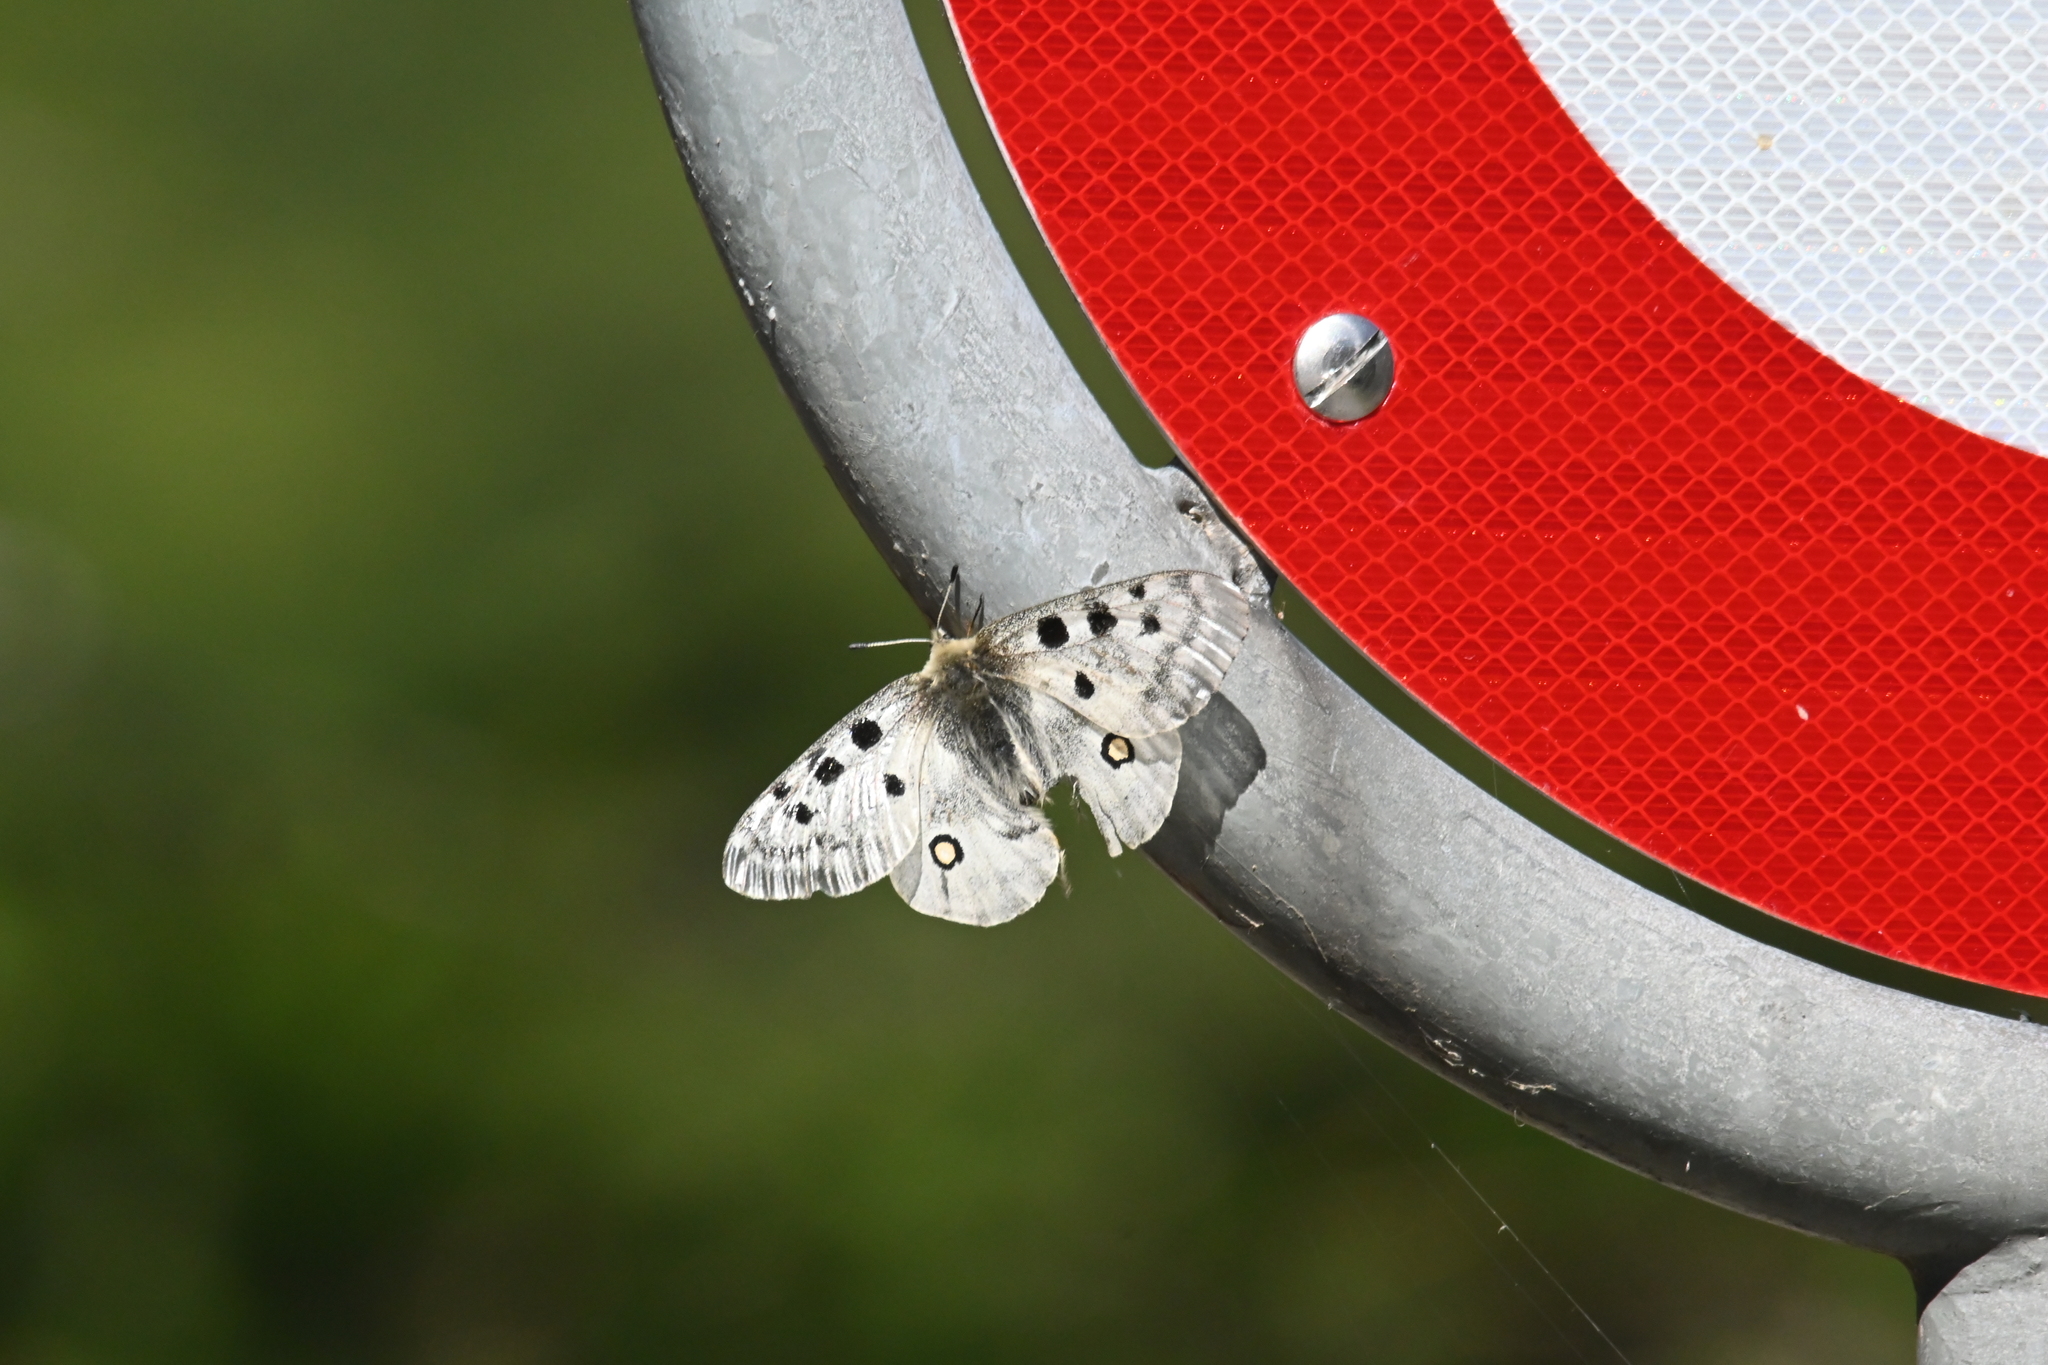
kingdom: Animalia
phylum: Arthropoda
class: Insecta
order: Lepidoptera
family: Papilionidae
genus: Parnassius
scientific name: Parnassius apollo
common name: Apollo
